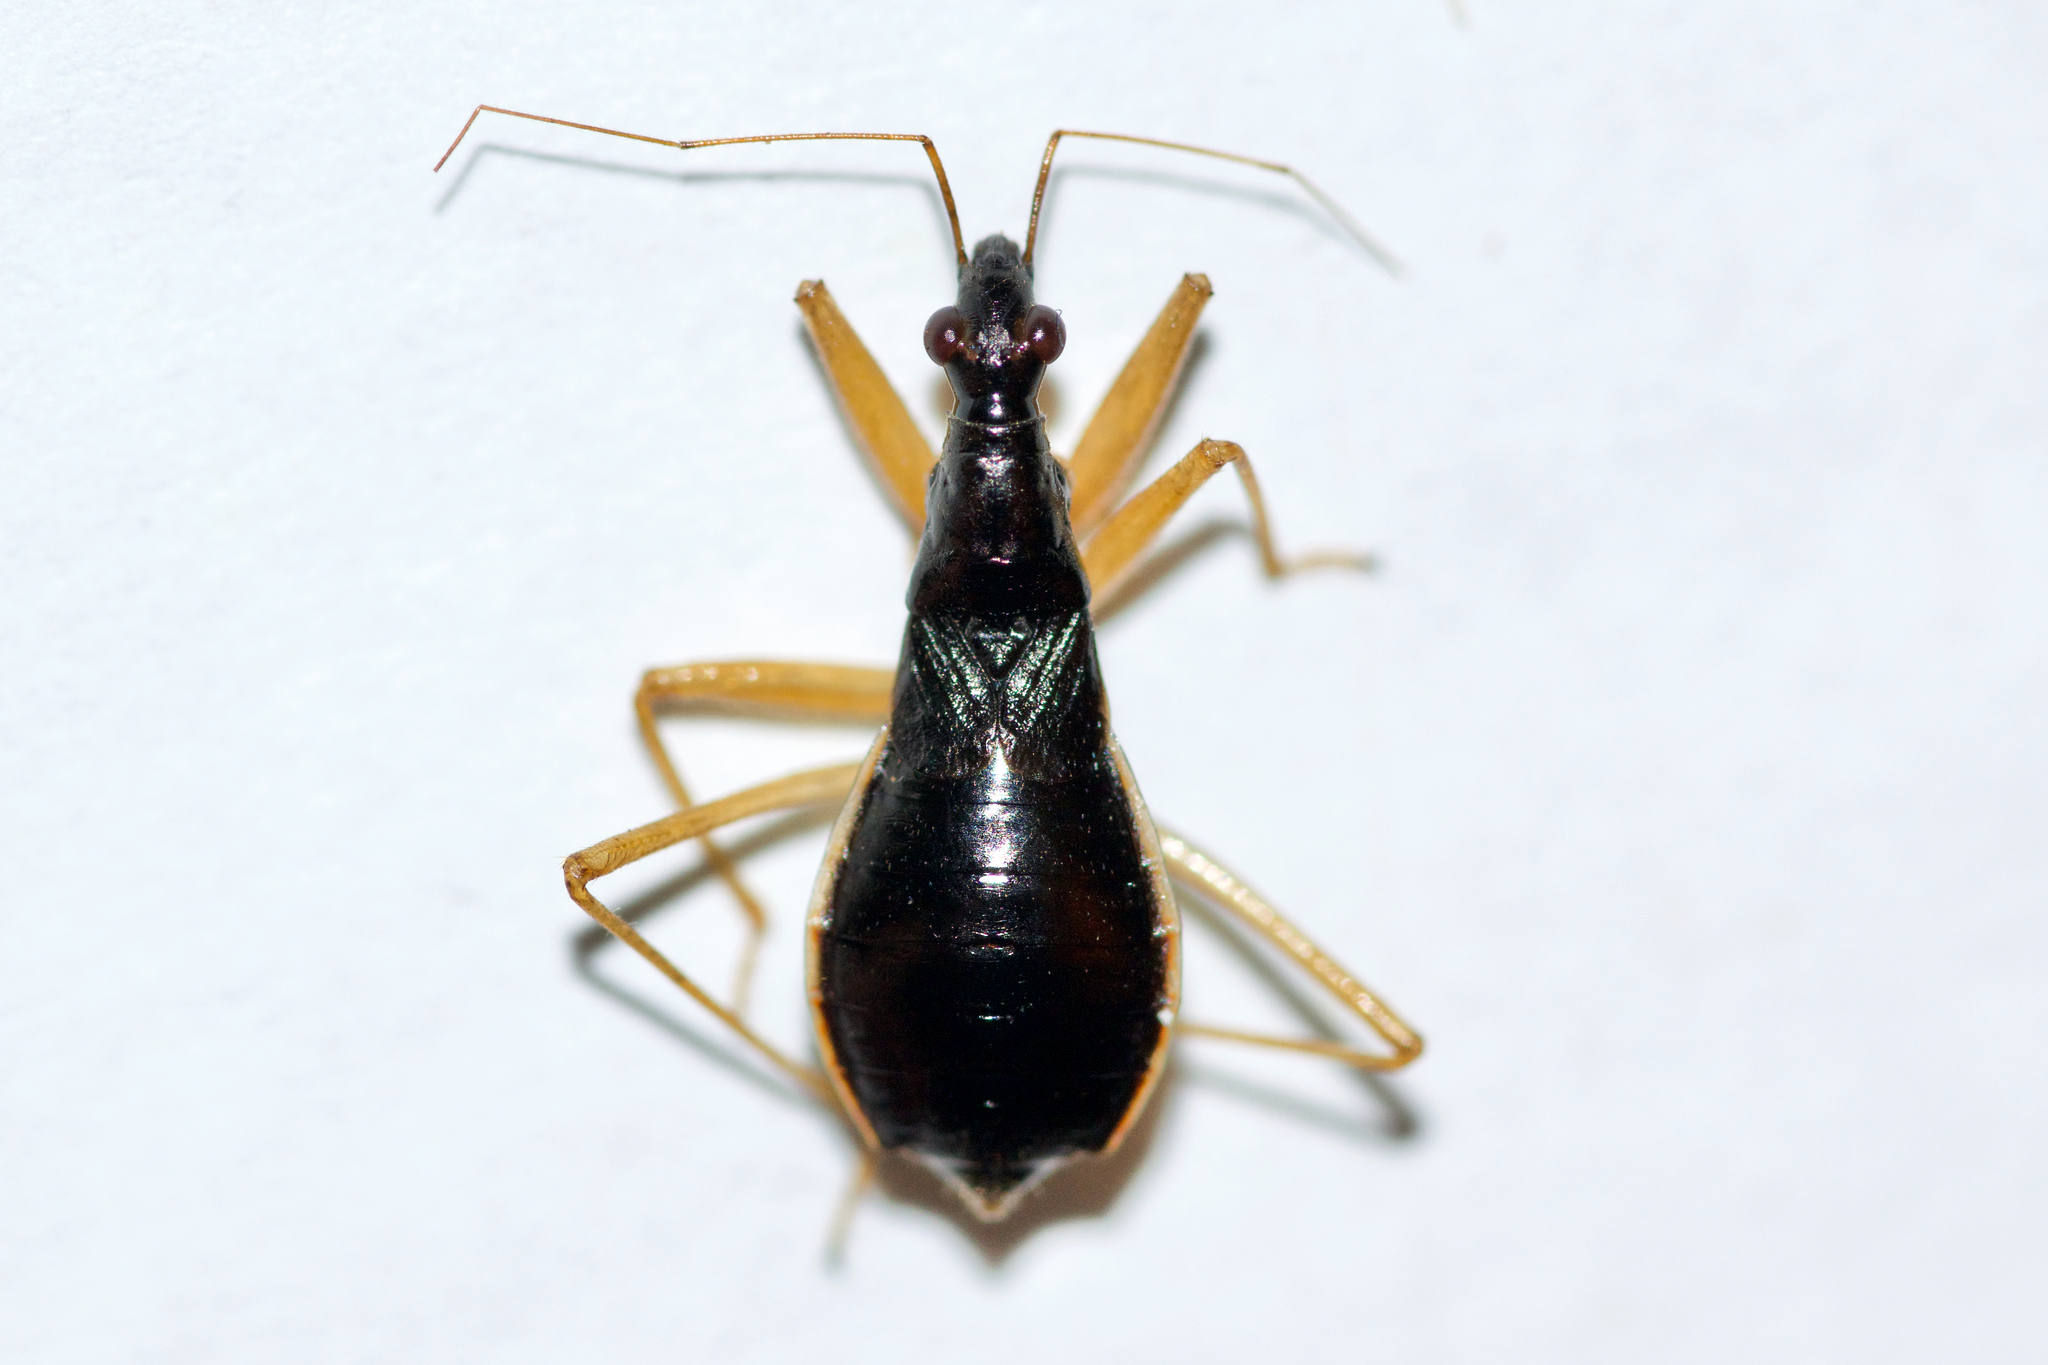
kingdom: Animalia
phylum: Arthropoda
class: Insecta
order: Hemiptera
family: Nabidae
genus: Nabis
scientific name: Nabis
